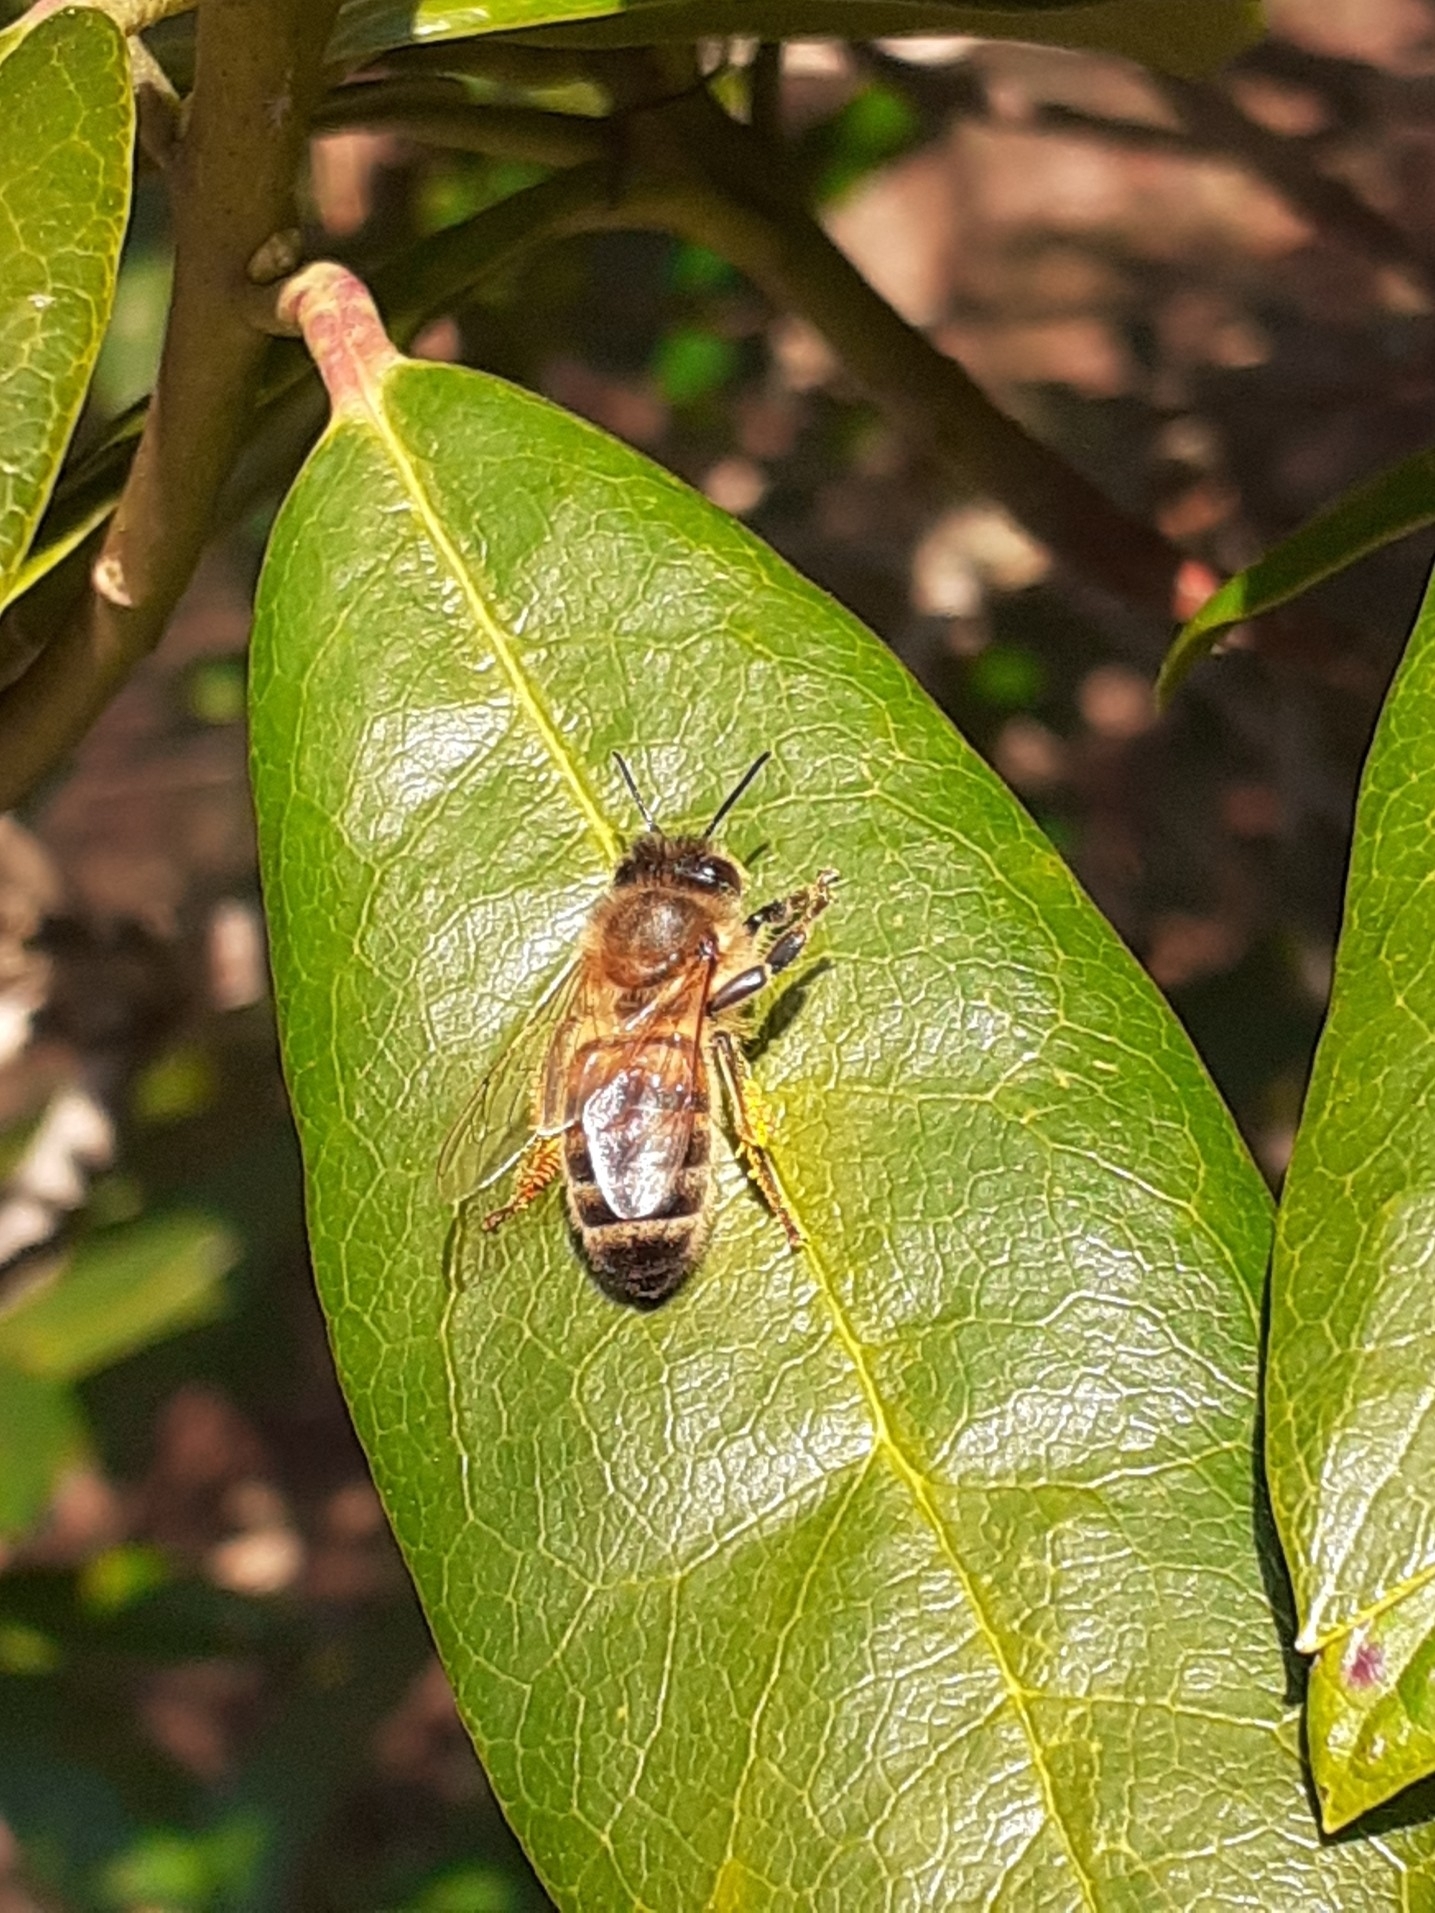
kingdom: Animalia
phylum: Arthropoda
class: Insecta
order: Hymenoptera
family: Apidae
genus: Apis
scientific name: Apis mellifera
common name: Honey bee
